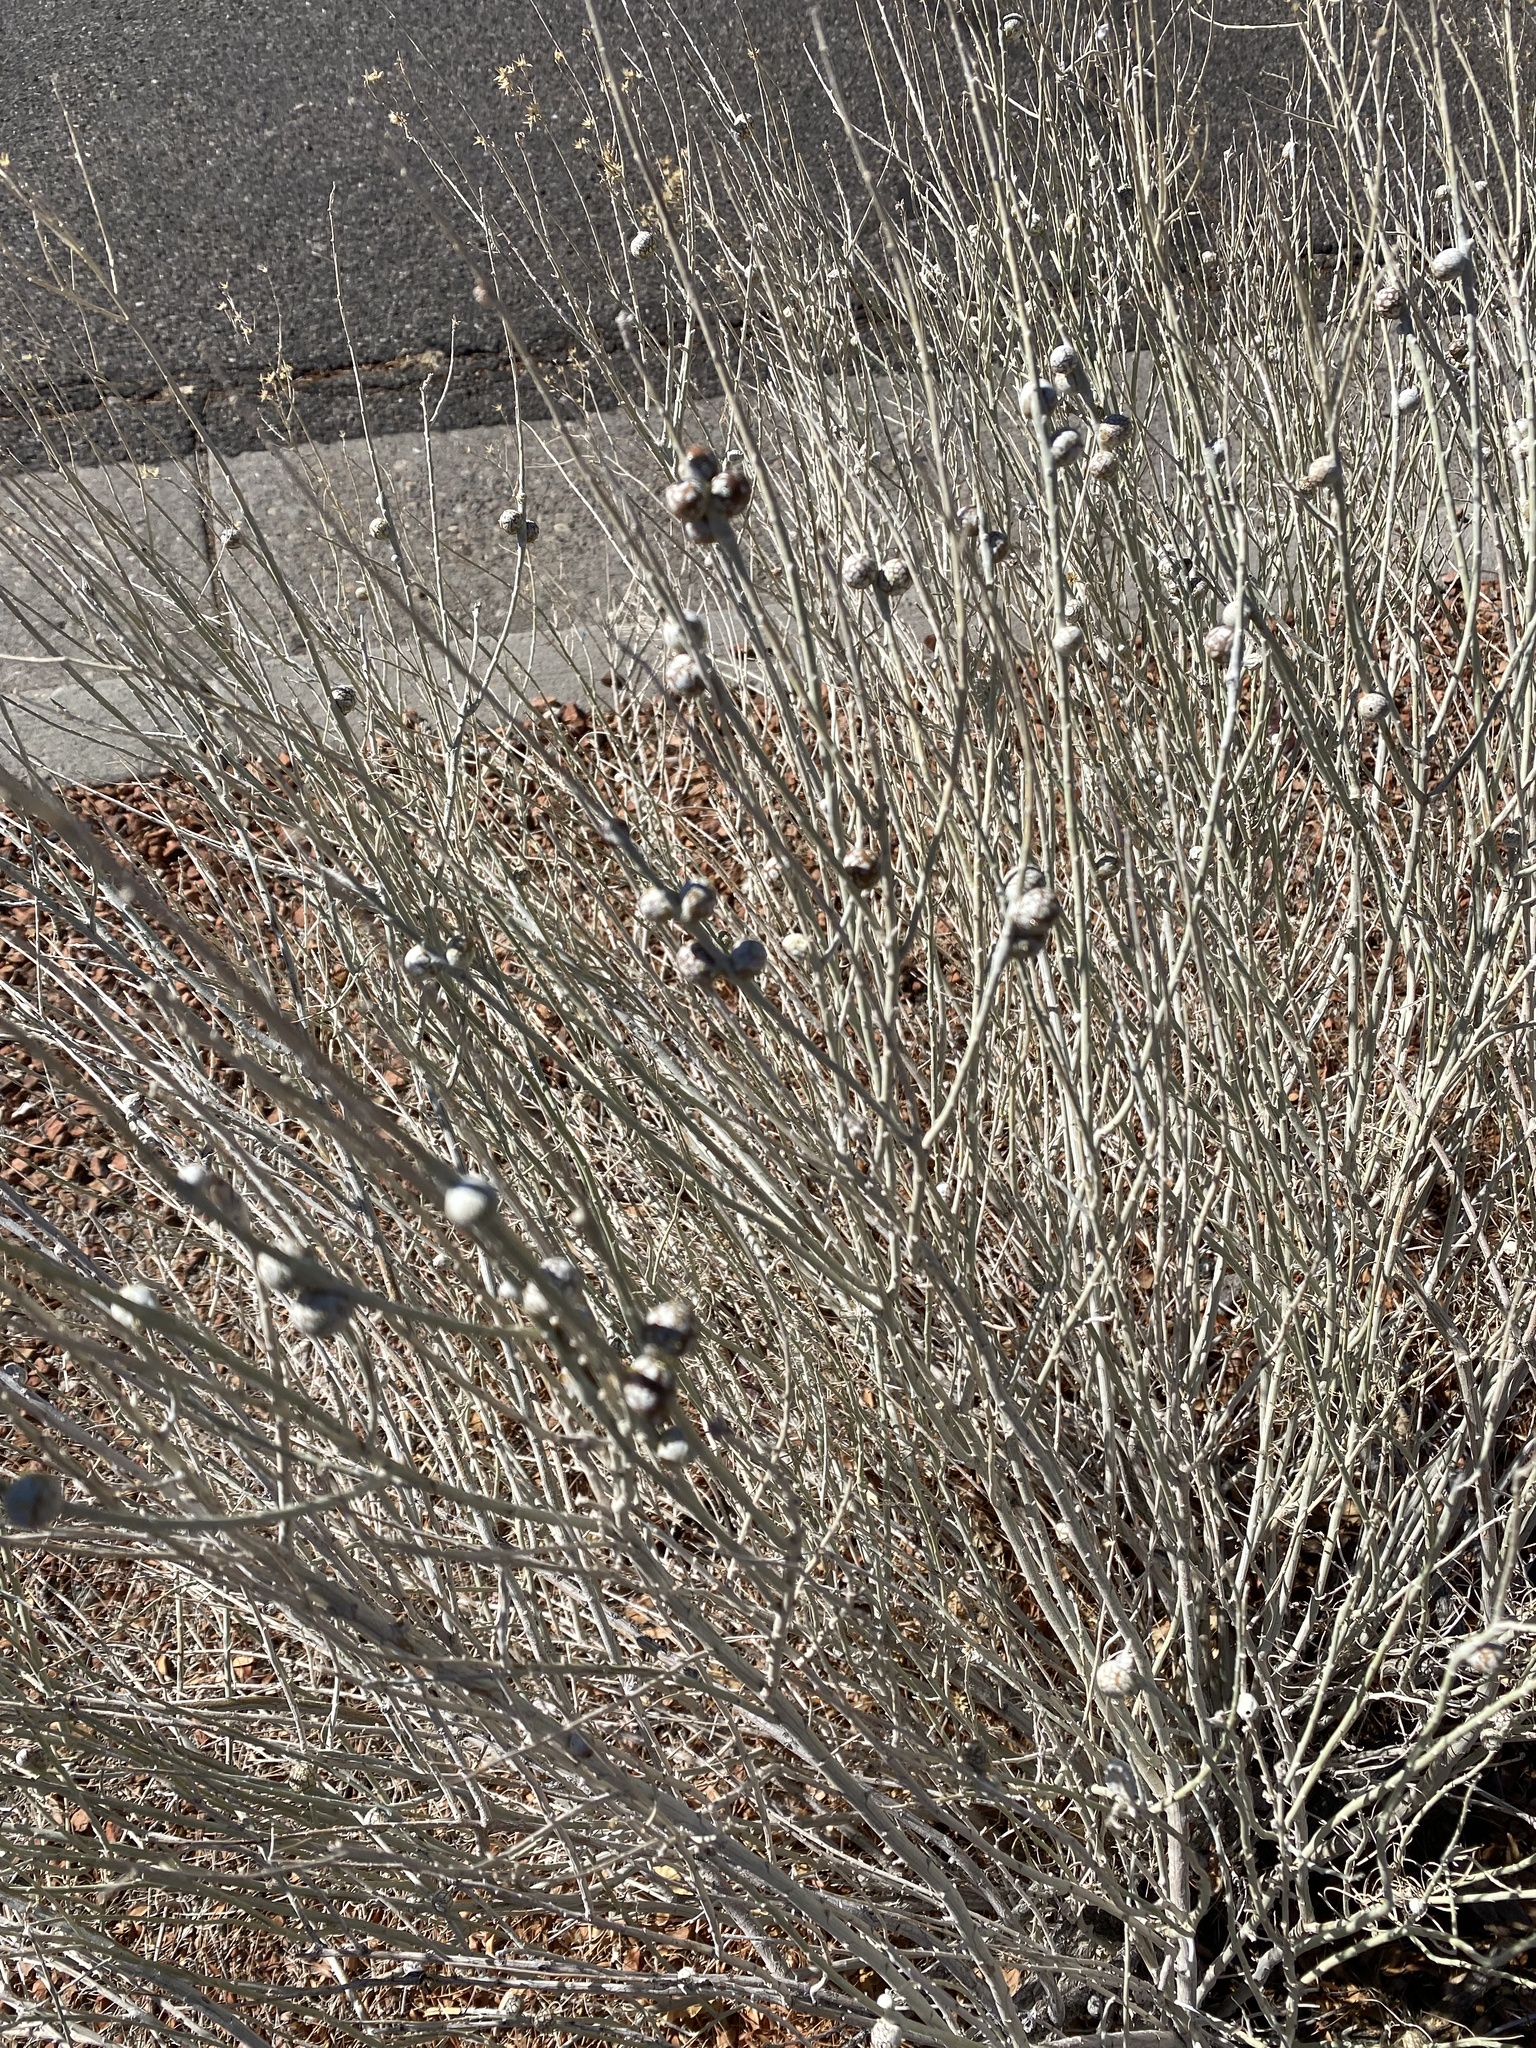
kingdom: Animalia
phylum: Arthropoda
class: Insecta
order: Diptera
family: Tephritidae
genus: Aciurina
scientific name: Aciurina trixa
